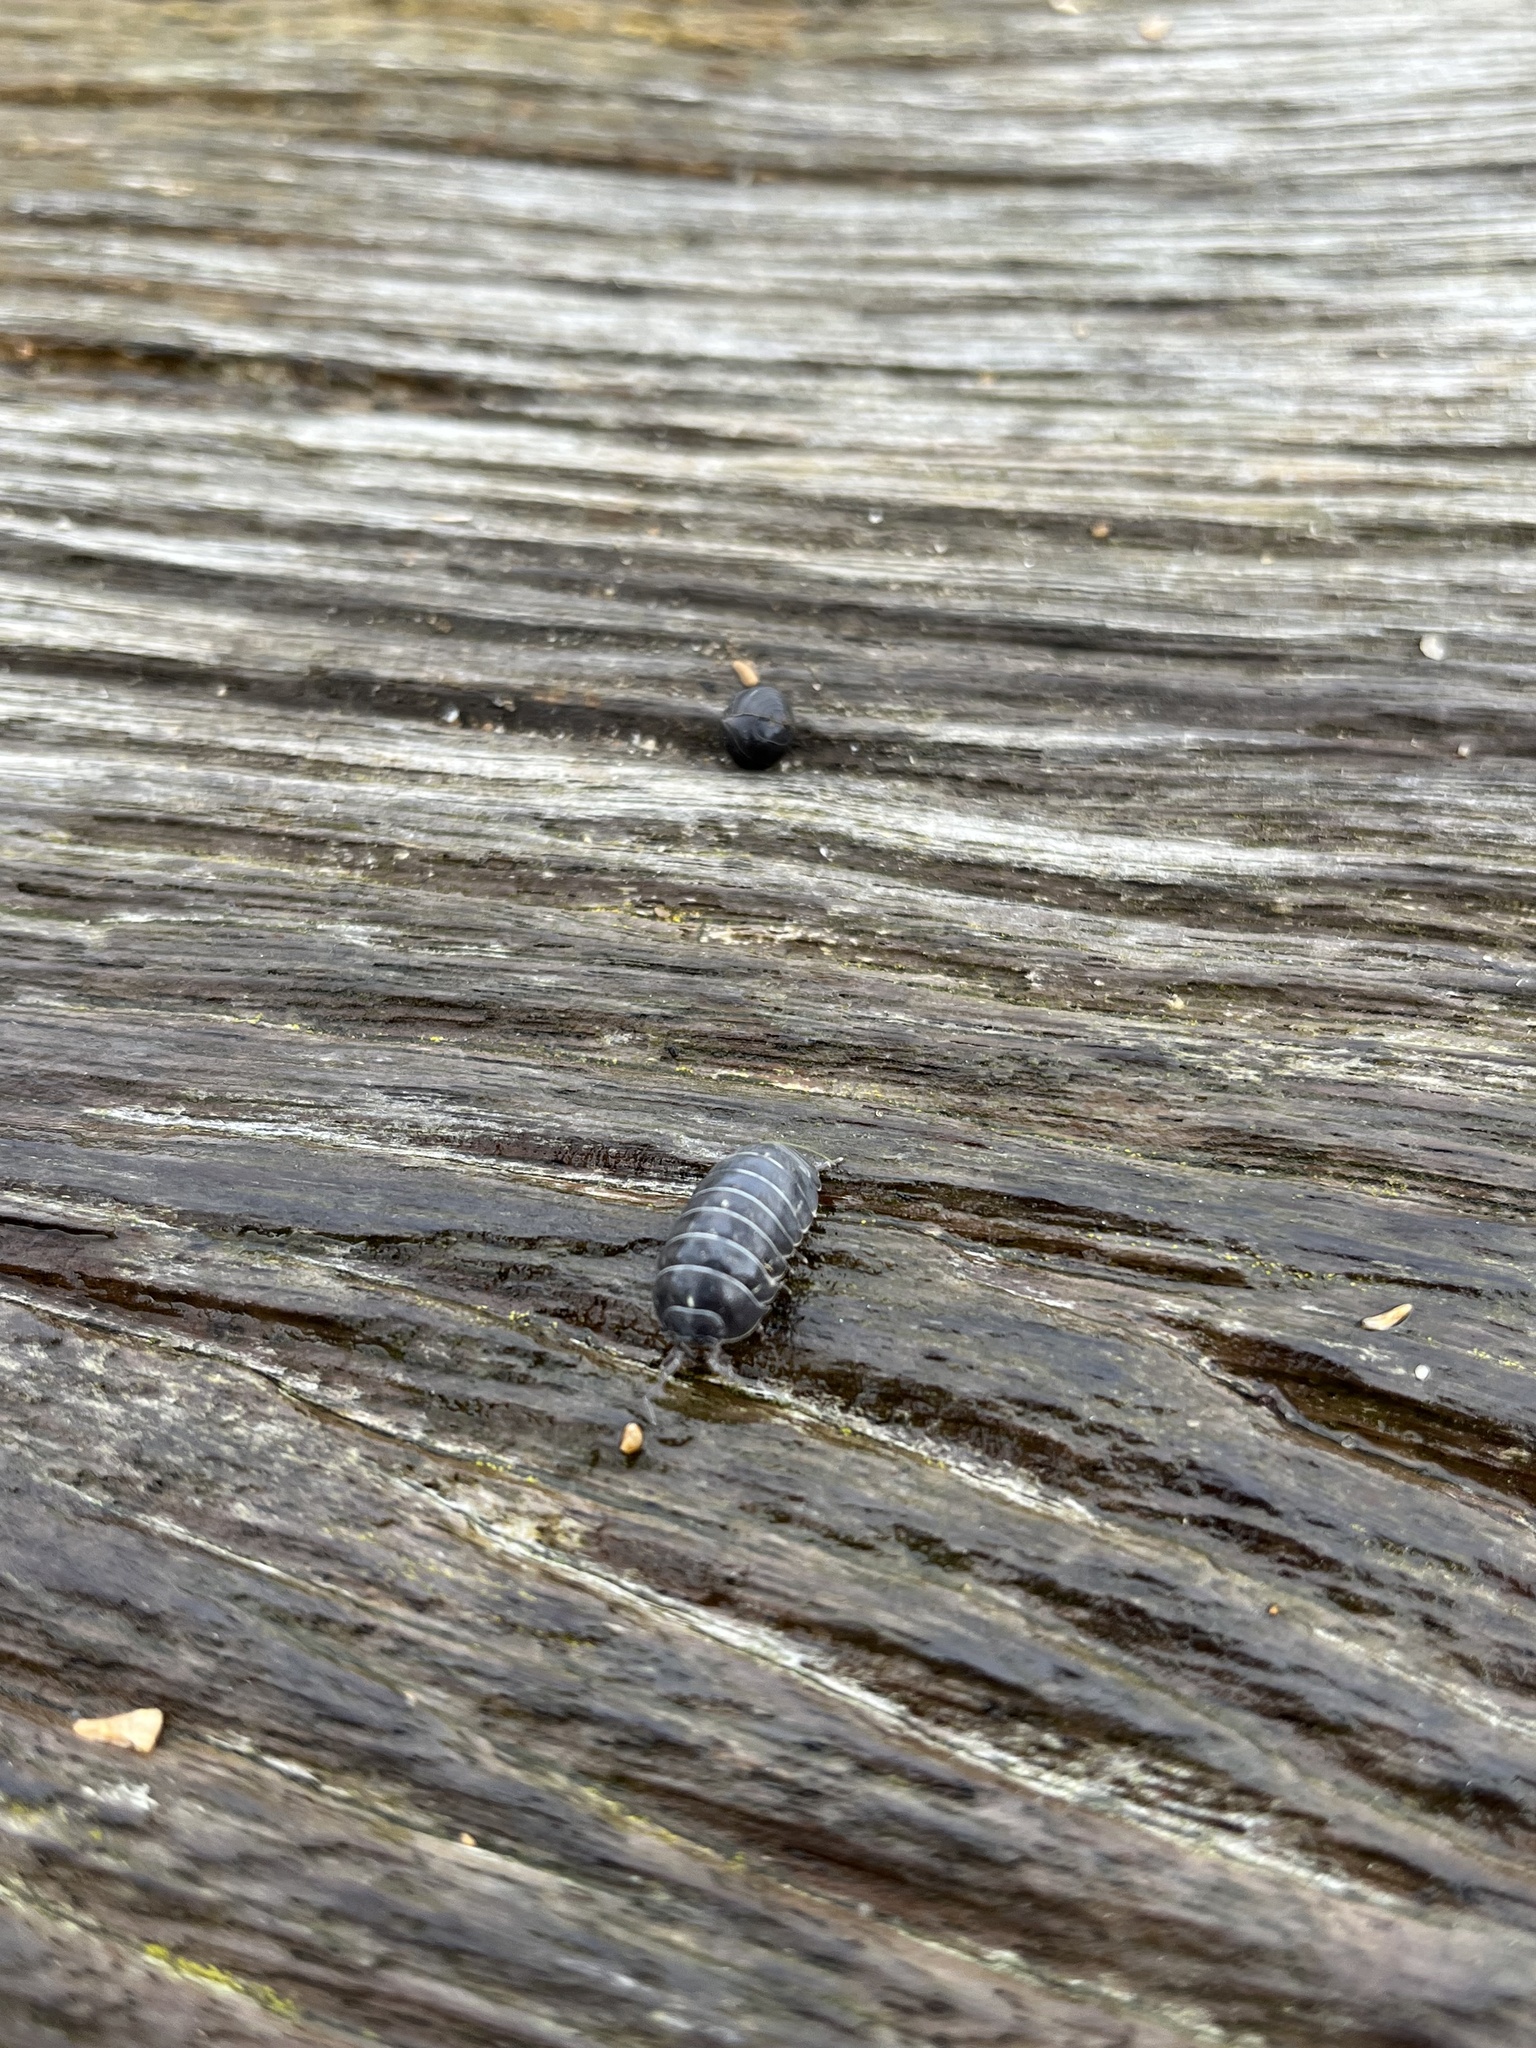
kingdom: Animalia
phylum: Arthropoda
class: Malacostraca
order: Isopoda
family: Armadillidiidae
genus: Armadillidium
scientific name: Armadillidium vulgare
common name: Common pill woodlouse
